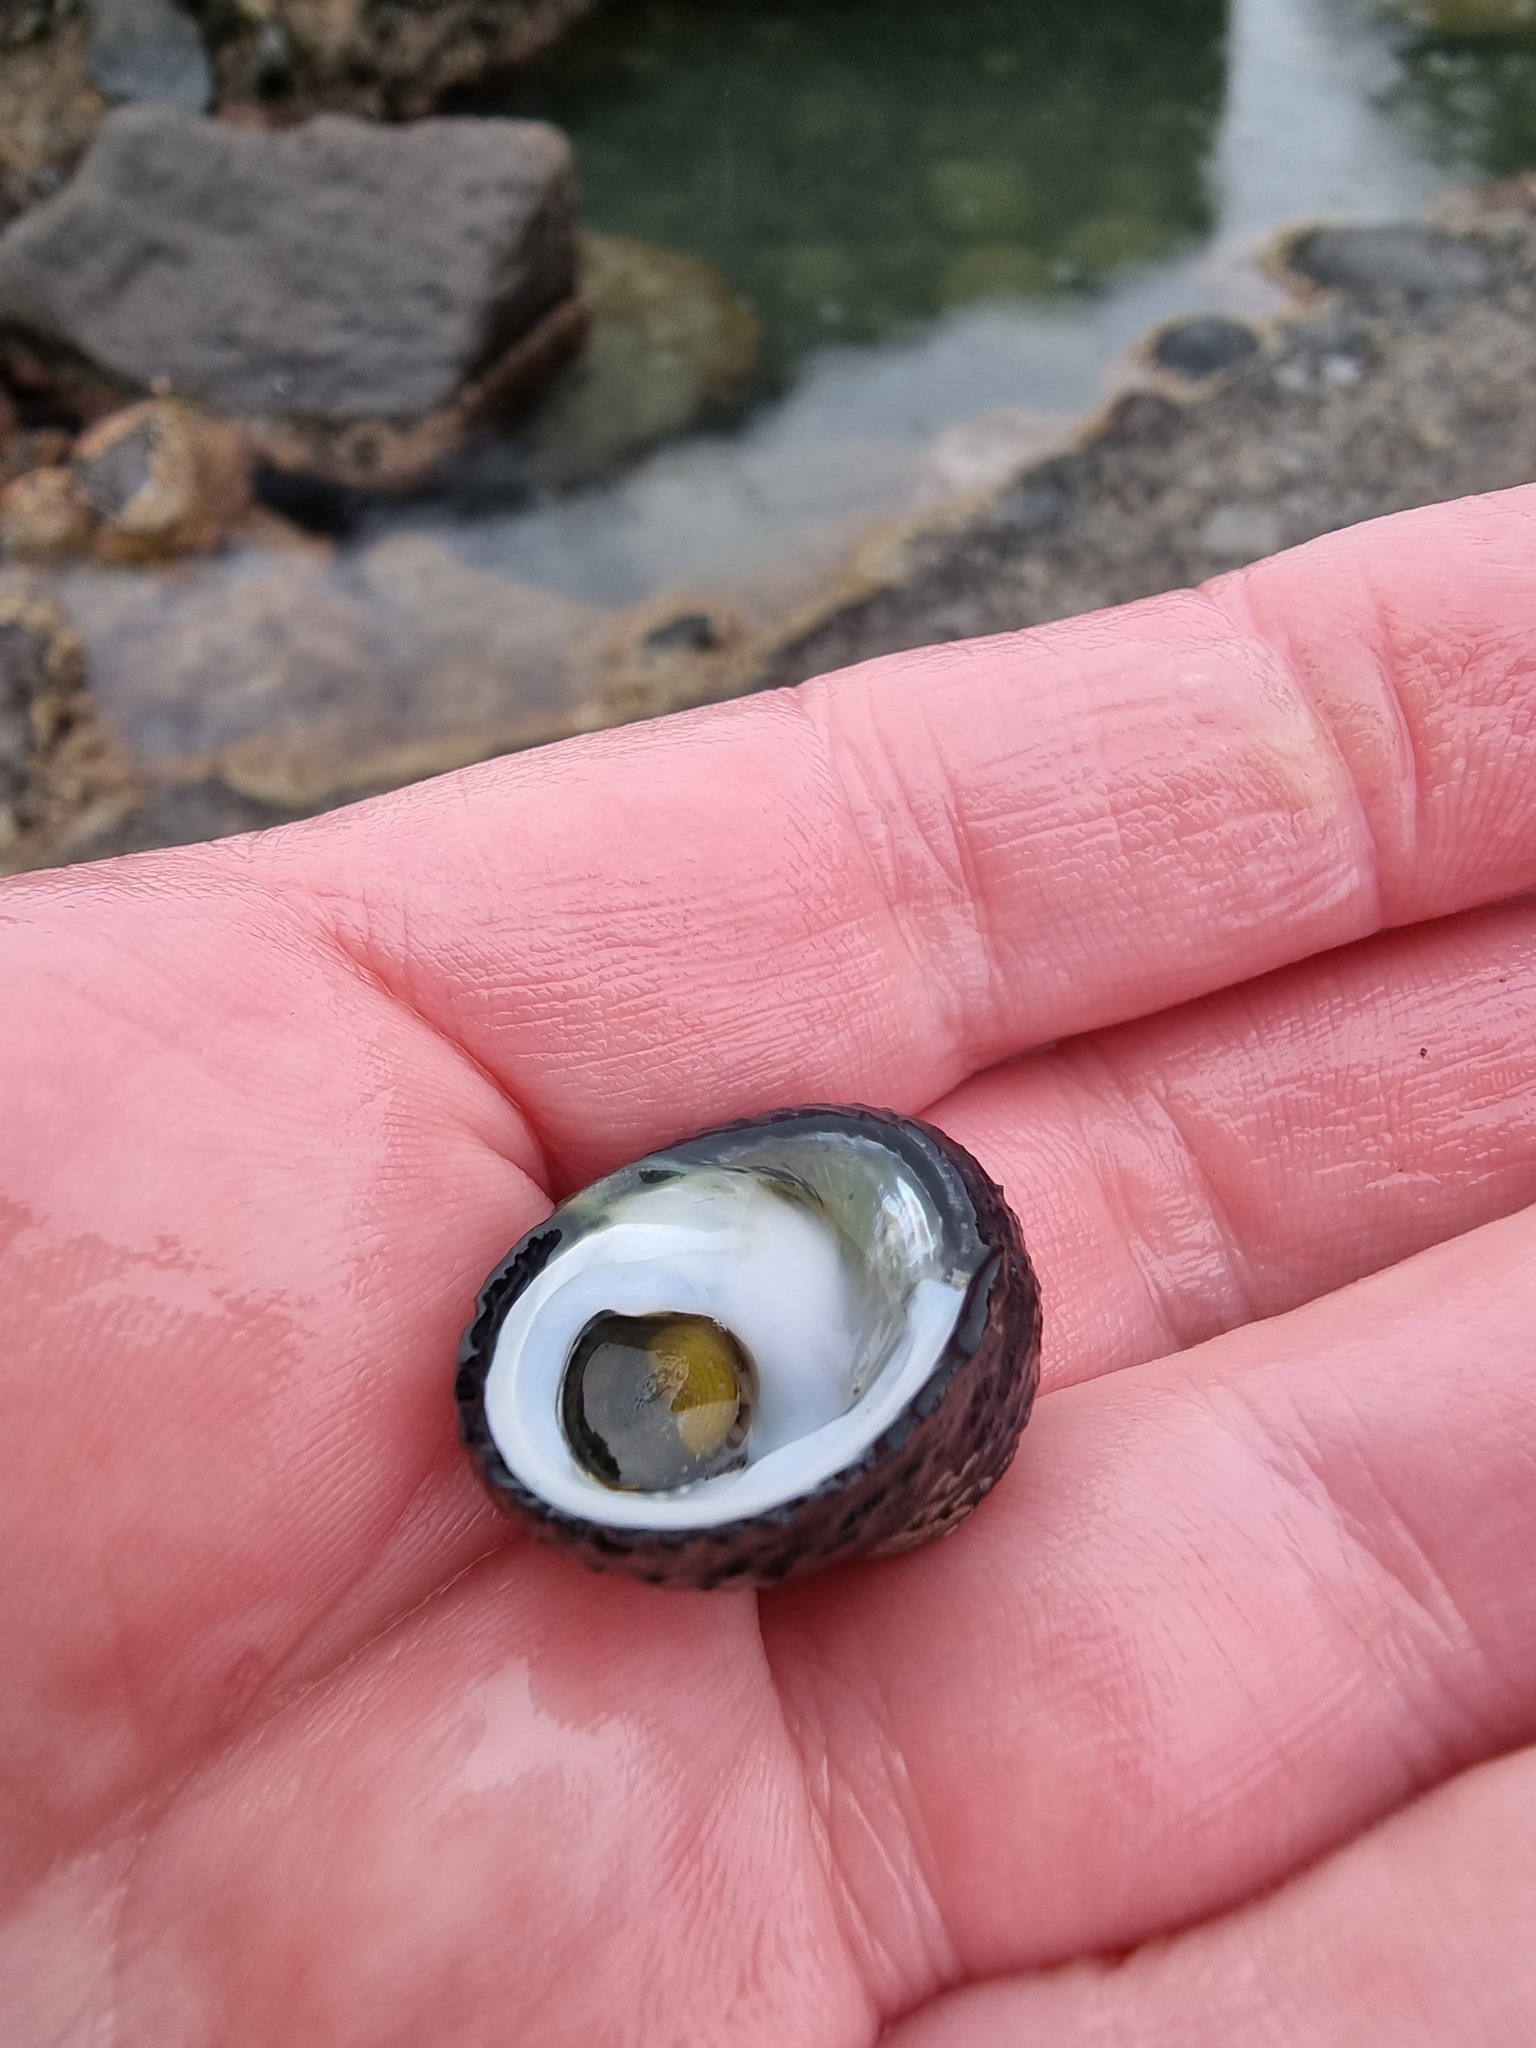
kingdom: Animalia
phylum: Mollusca
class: Gastropoda
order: Trochida
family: Trochidae
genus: Diloma
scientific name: Diloma zelandicum
